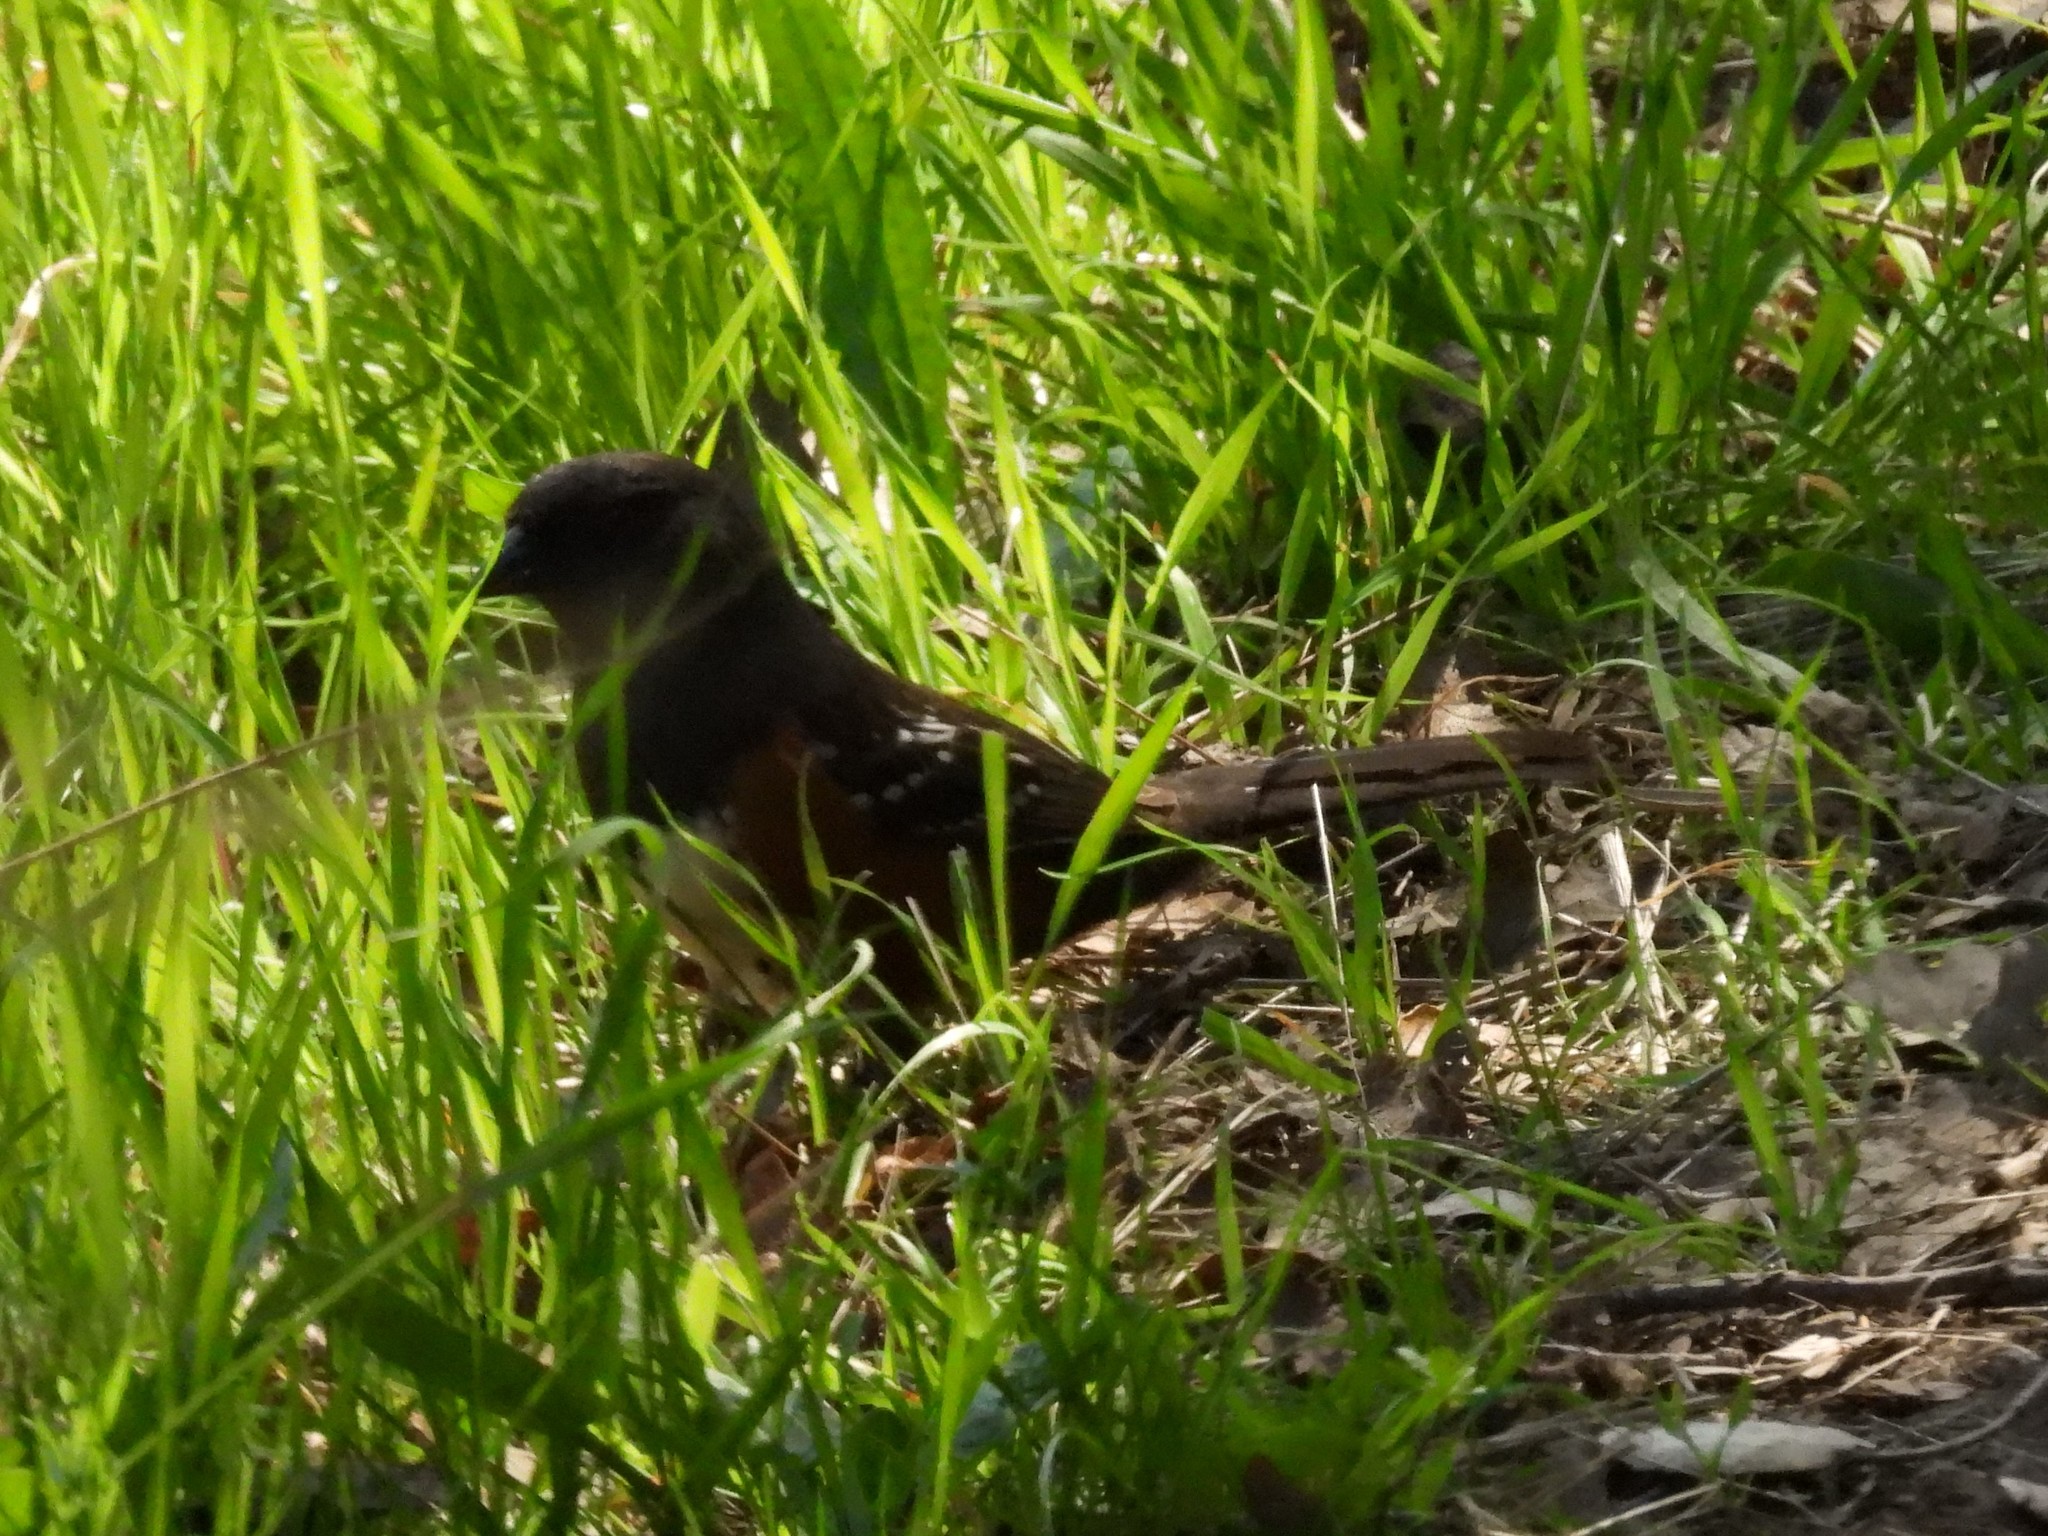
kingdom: Animalia
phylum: Chordata
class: Aves
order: Passeriformes
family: Passerellidae
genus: Pipilo
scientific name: Pipilo maculatus
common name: Spotted towhee
